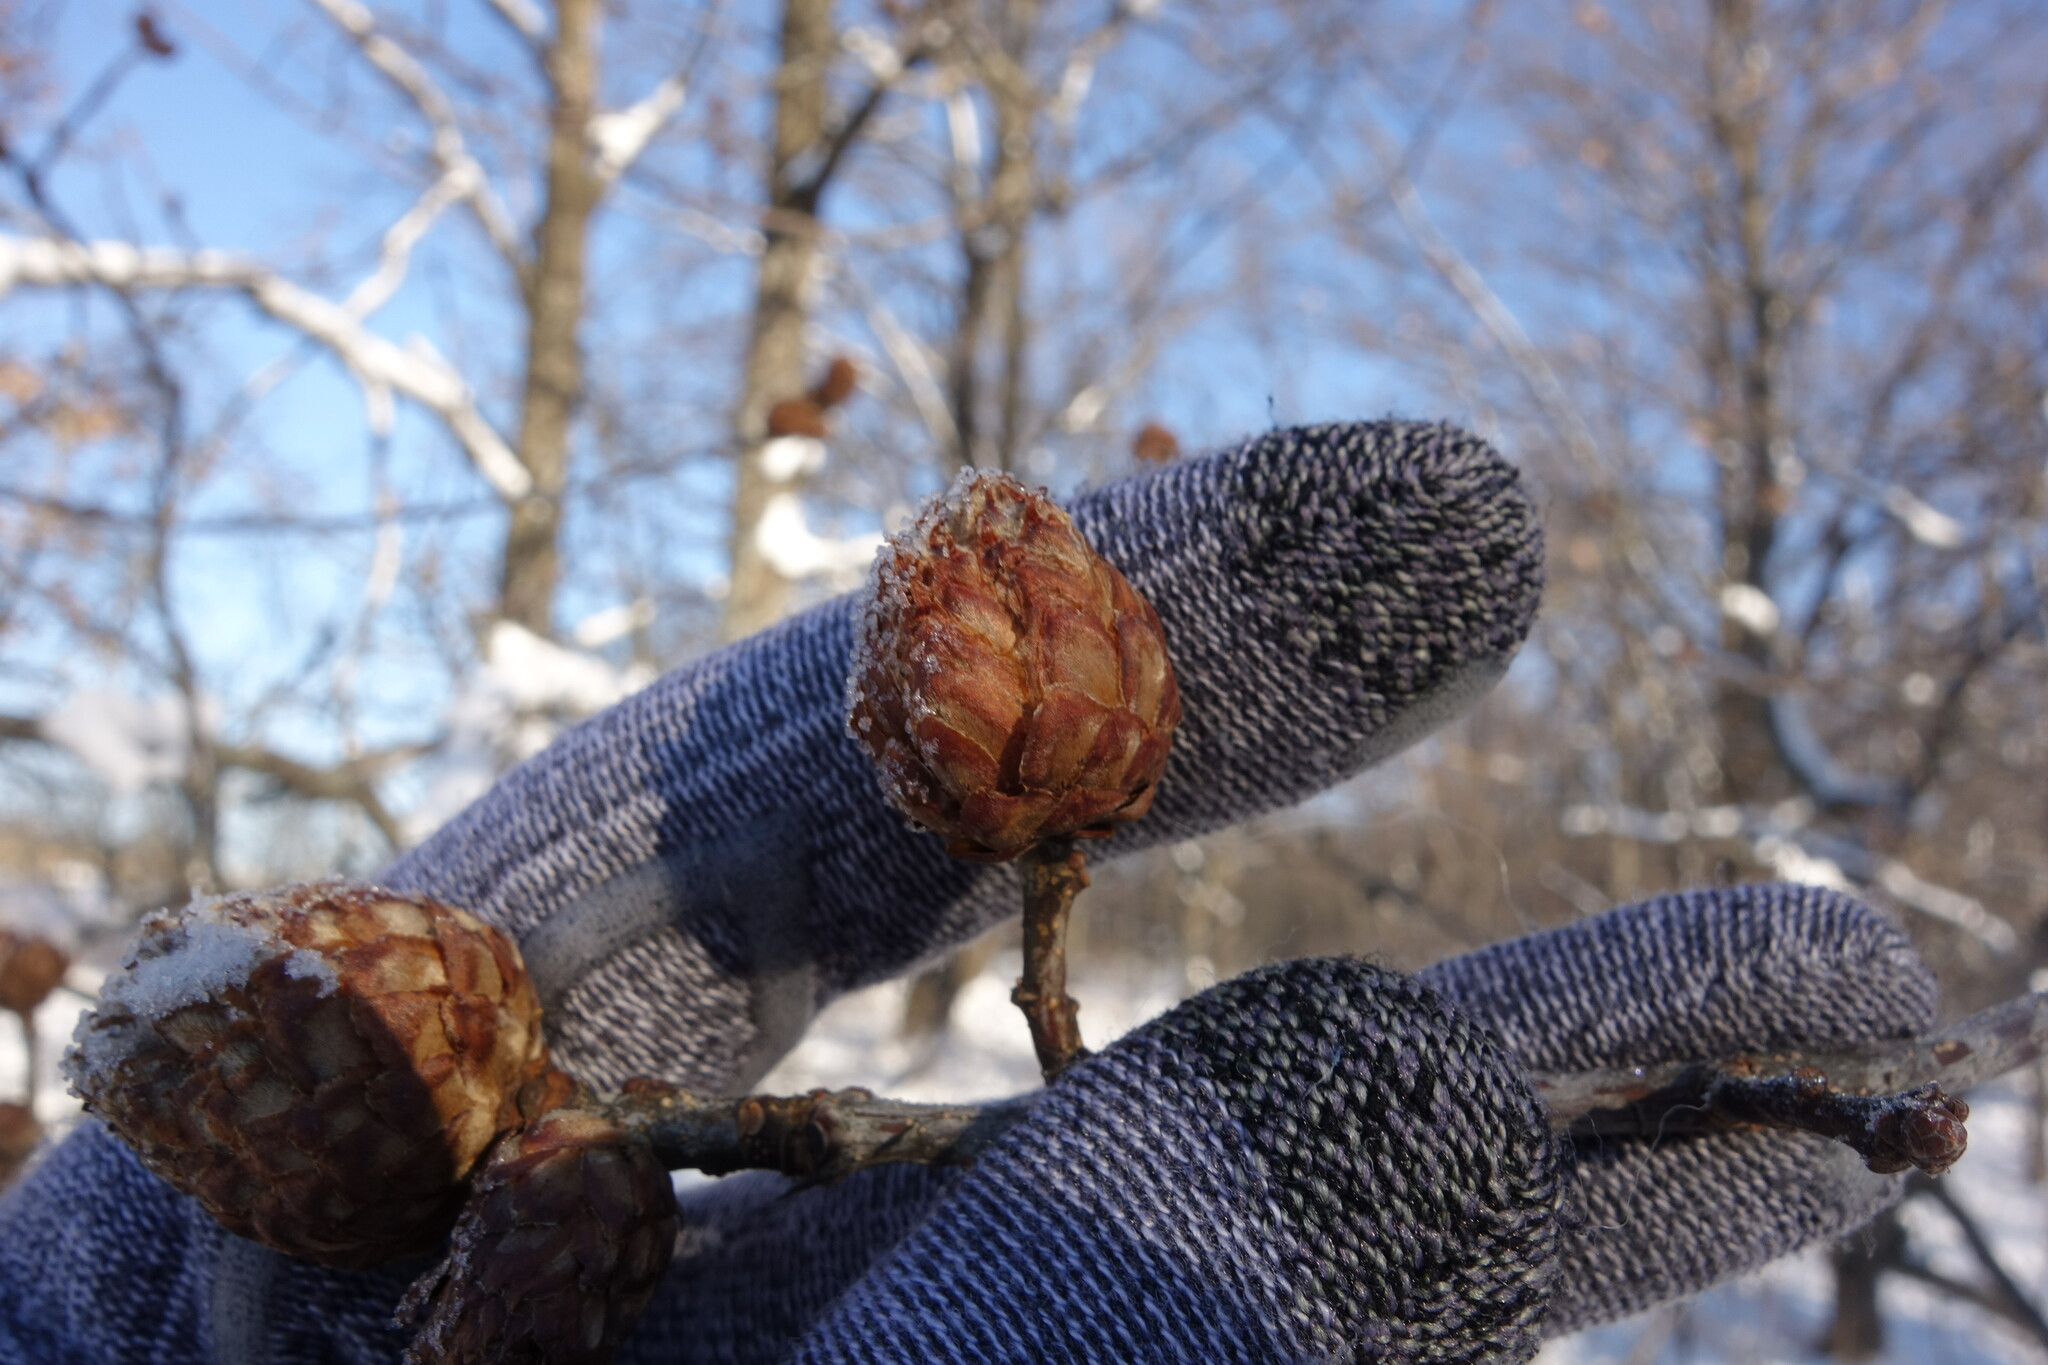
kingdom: Animalia
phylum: Arthropoda
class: Insecta
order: Hymenoptera
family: Cynipidae
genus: Andricus
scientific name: Andricus foecundatrix
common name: Artichoke gall
